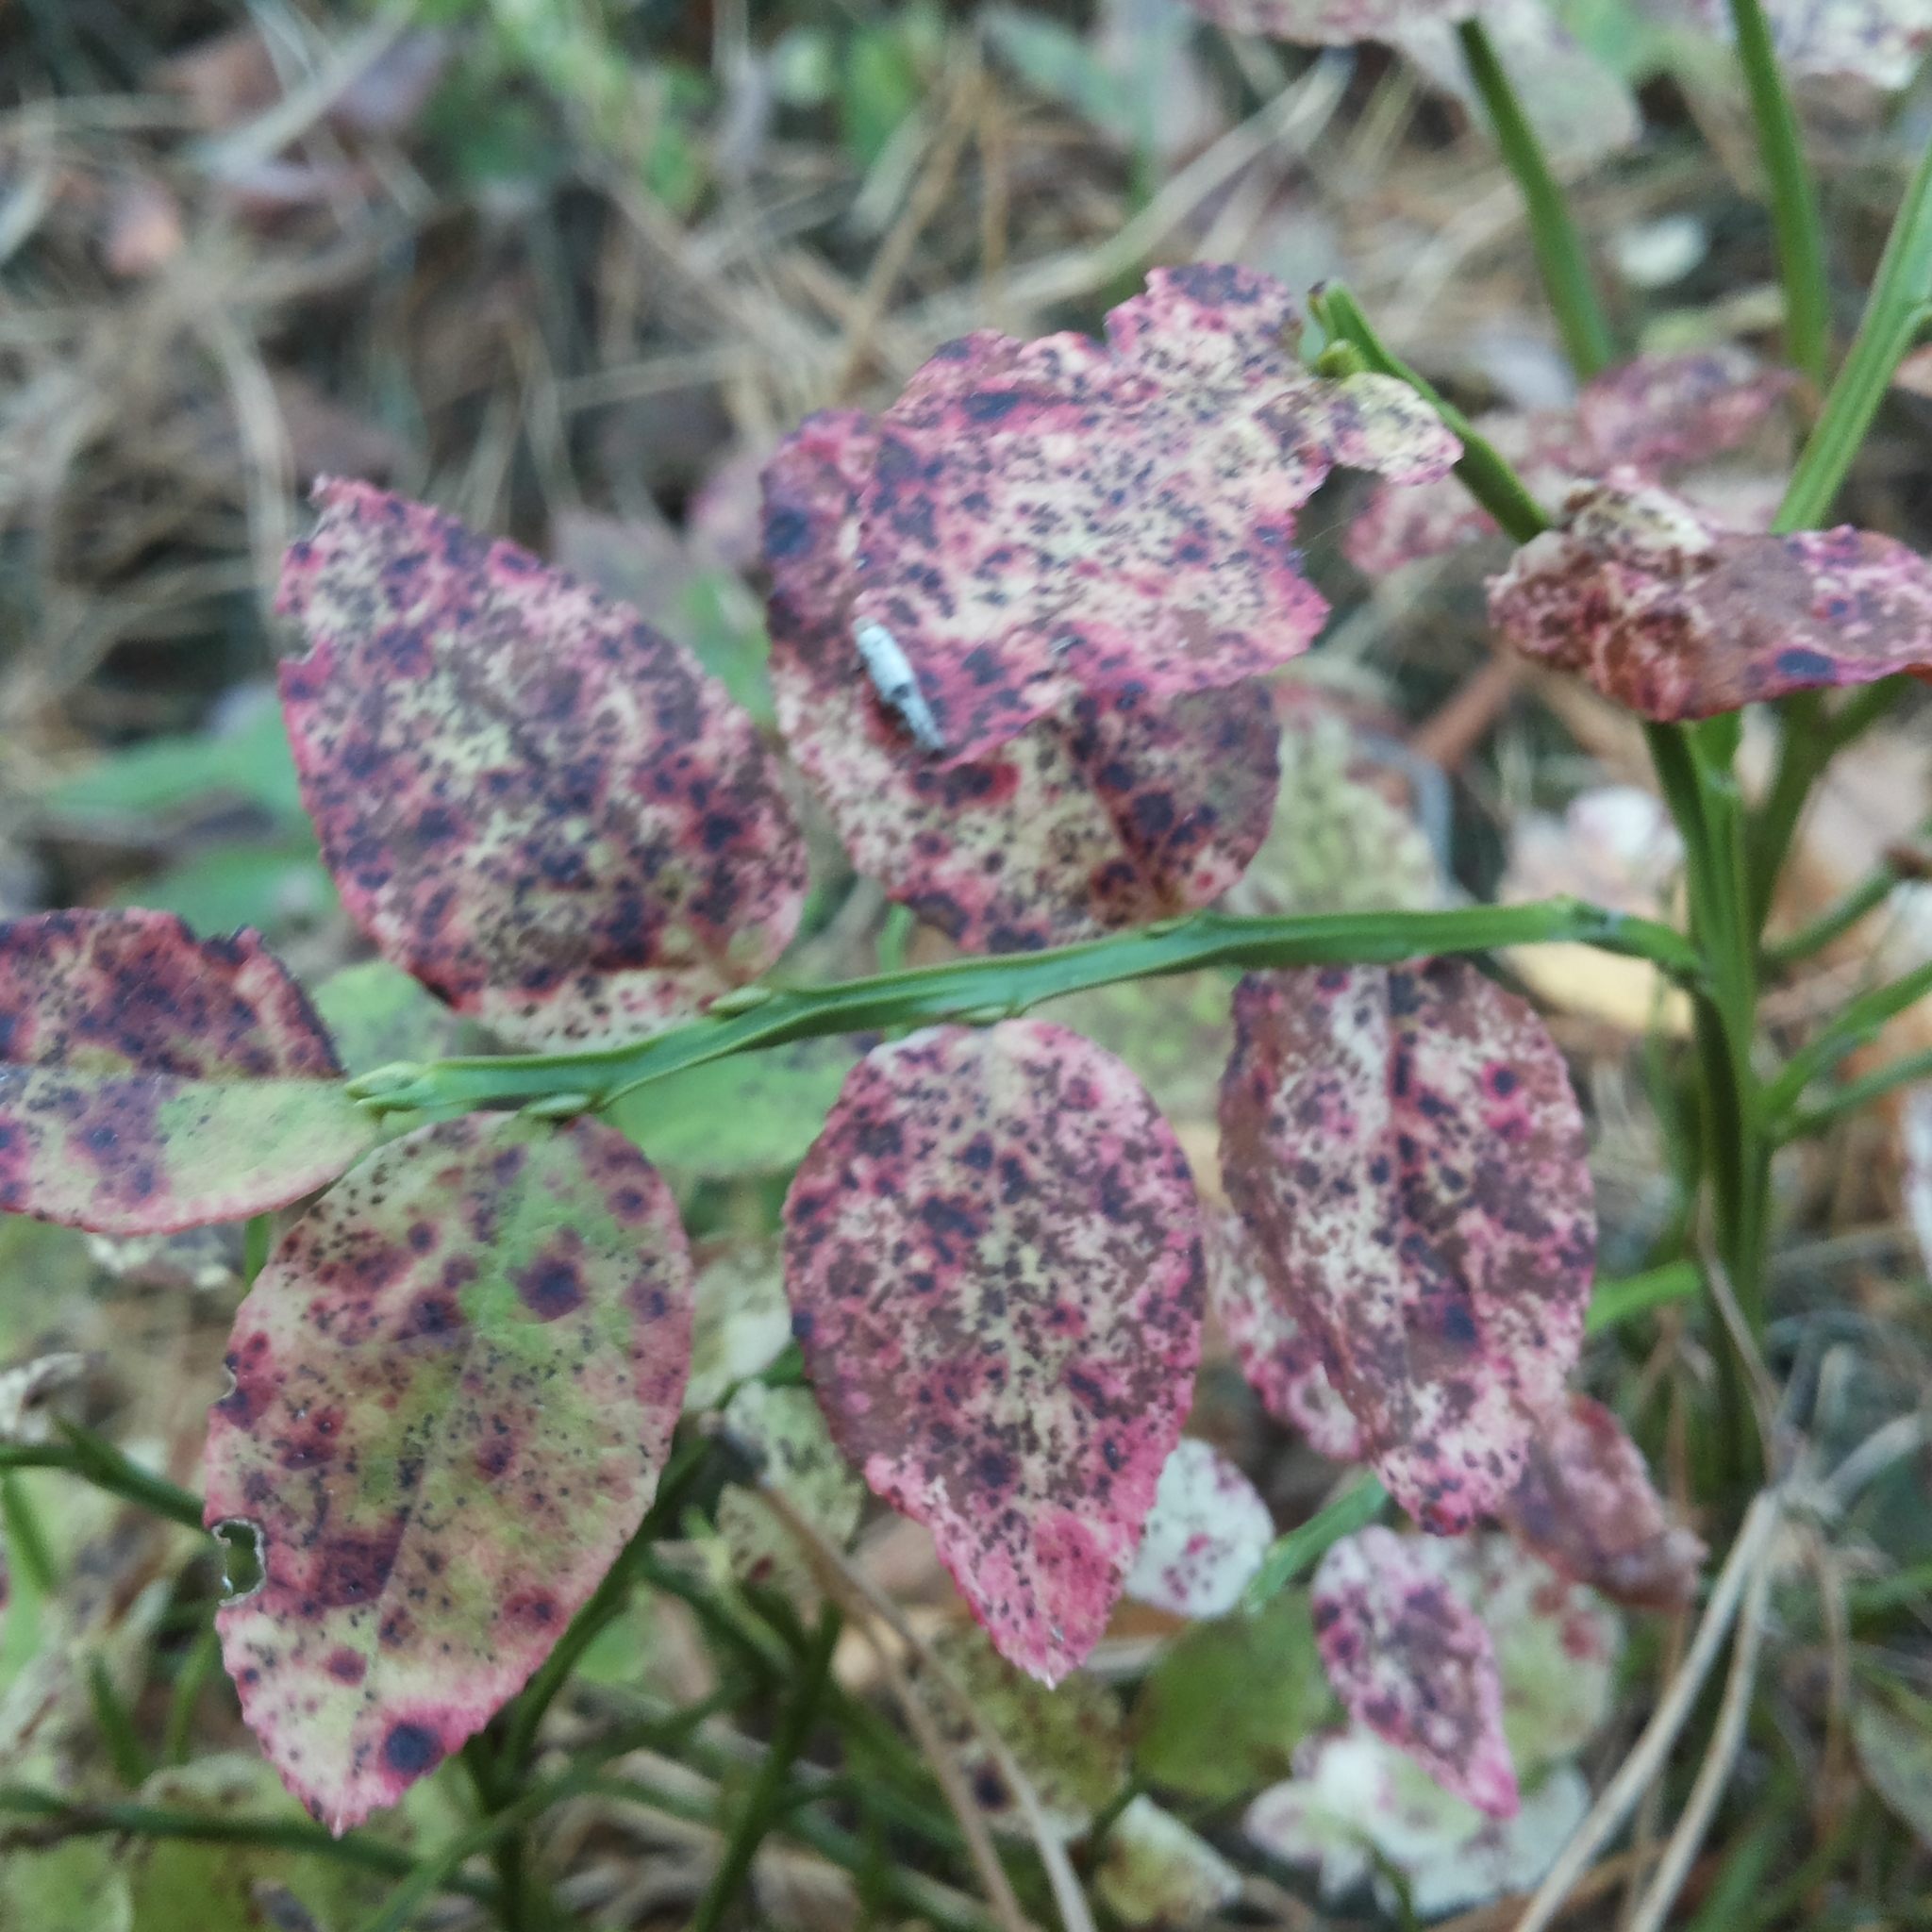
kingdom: Plantae
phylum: Tracheophyta
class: Magnoliopsida
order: Ericales
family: Ericaceae
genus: Vaccinium
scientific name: Vaccinium myrtillus
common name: Bilberry
